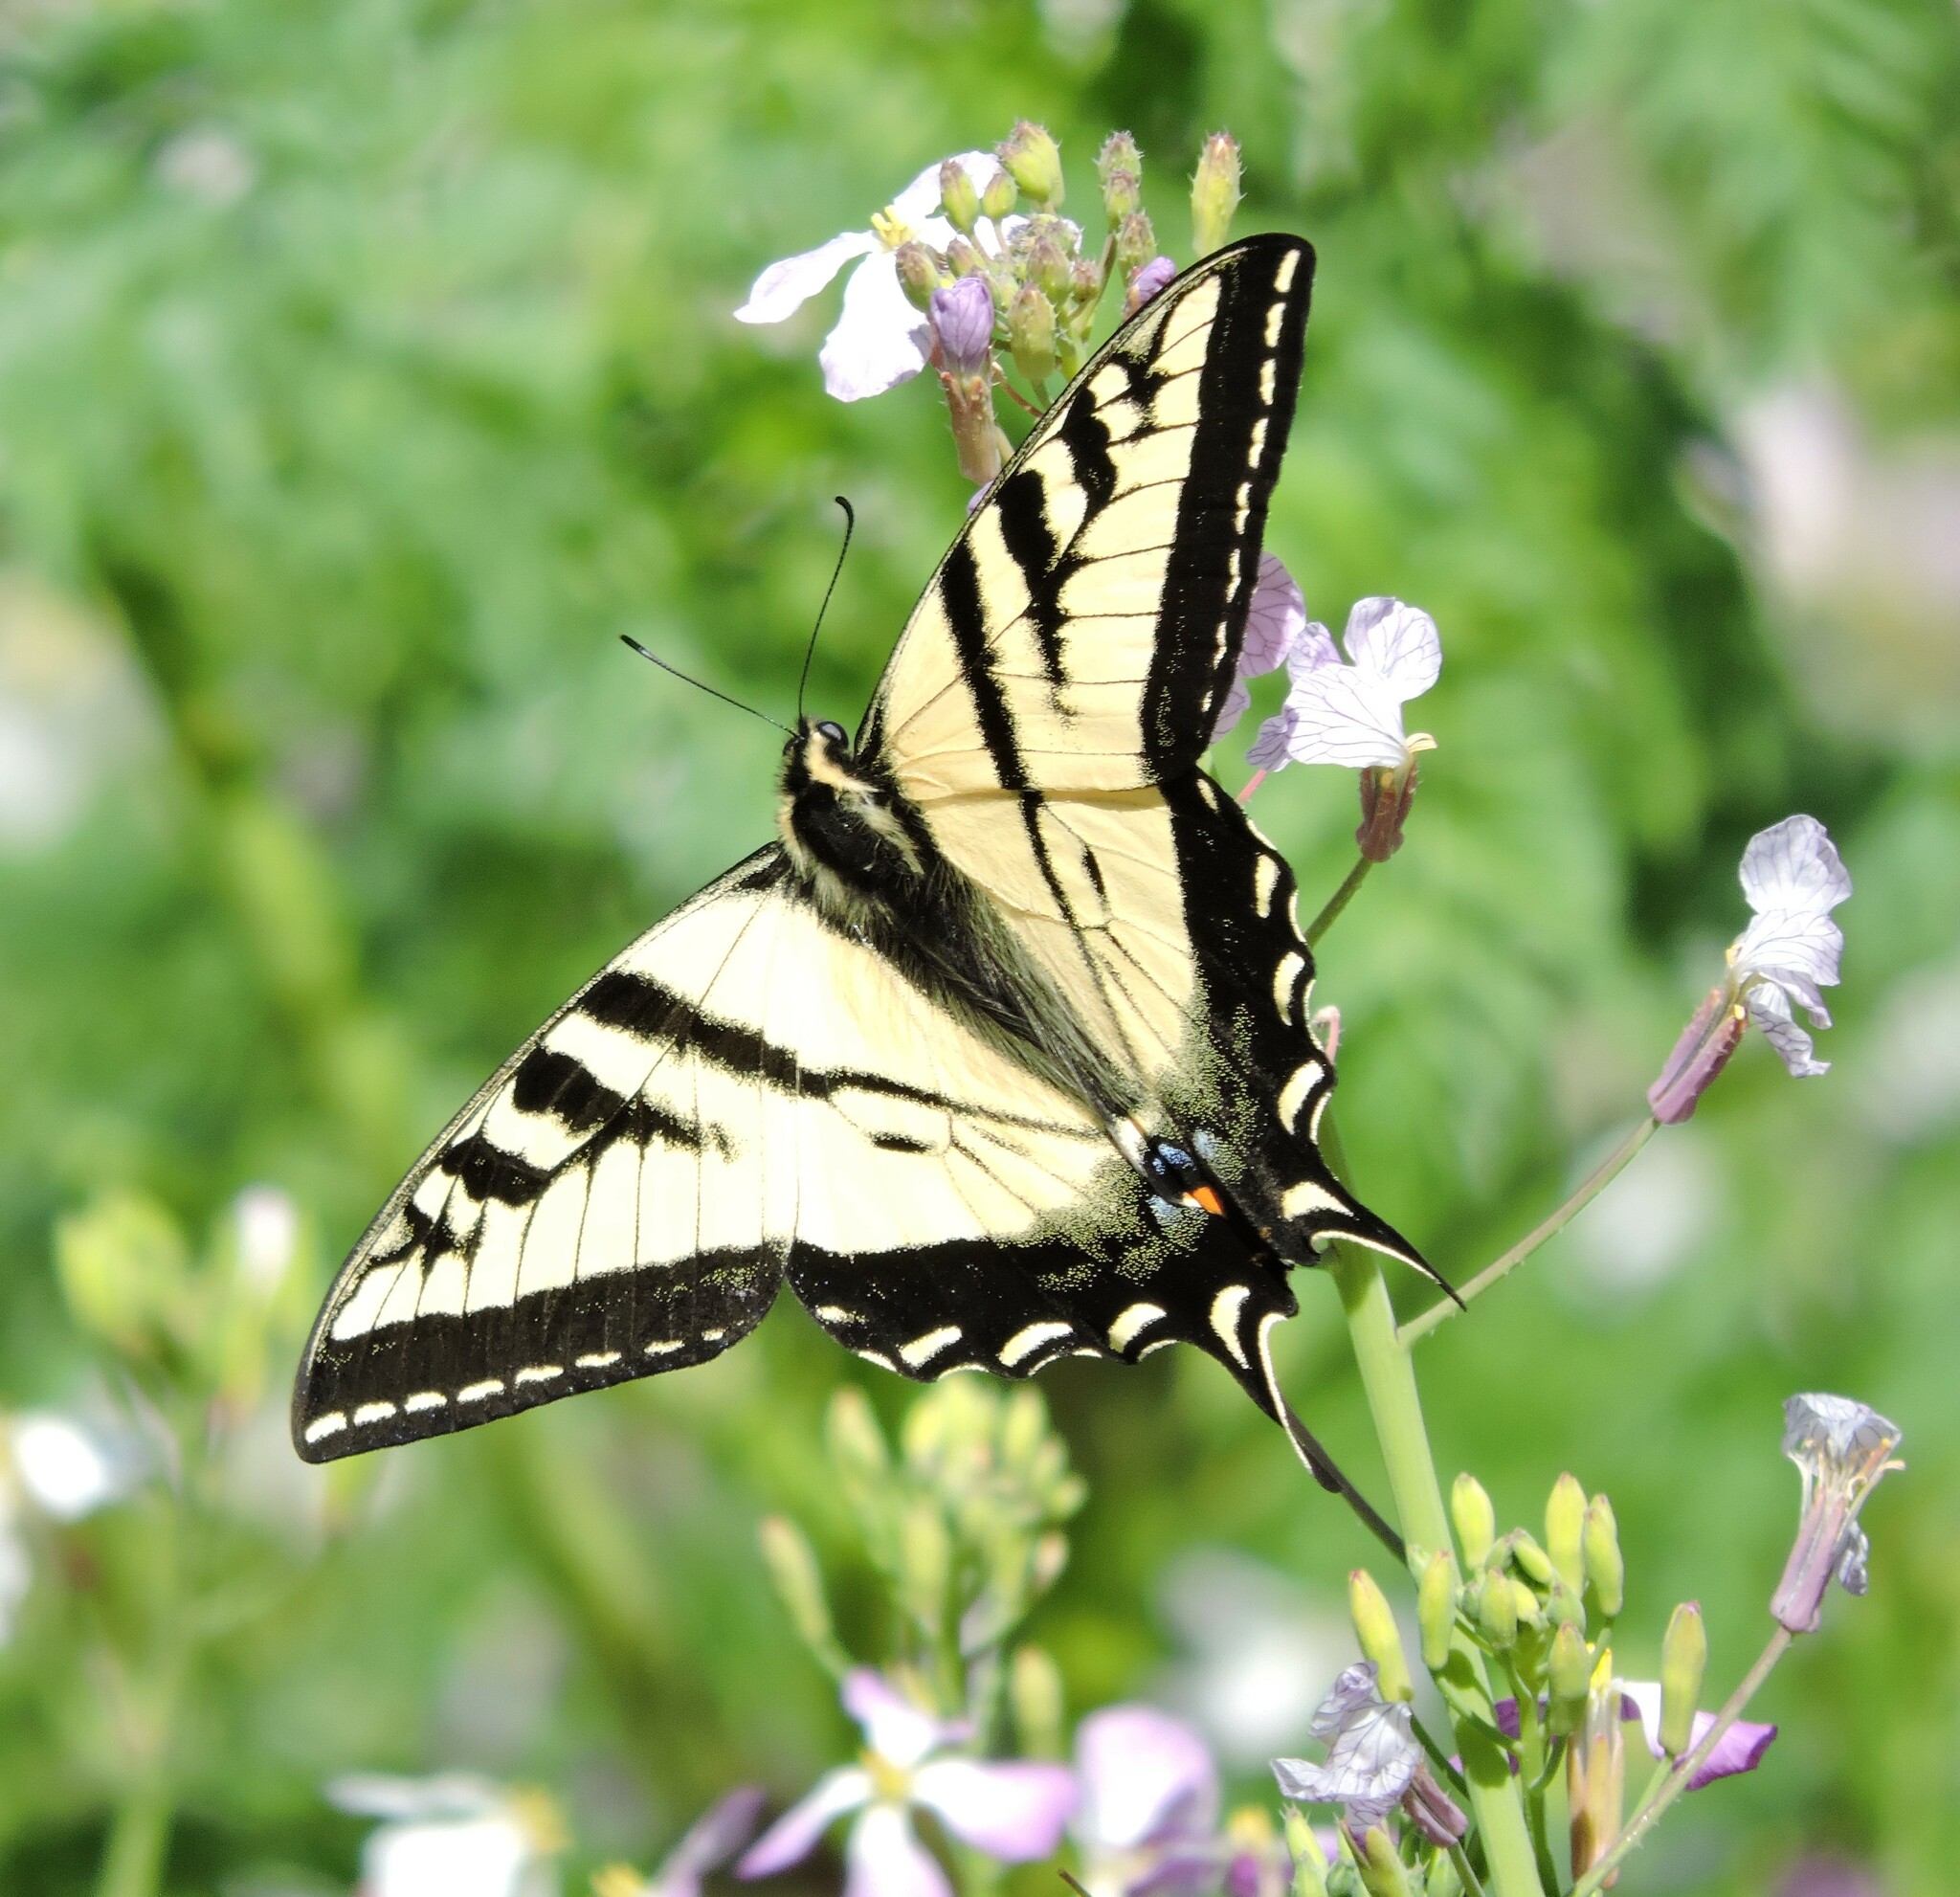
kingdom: Animalia
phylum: Arthropoda
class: Insecta
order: Lepidoptera
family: Papilionidae
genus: Papilio
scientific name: Papilio rutulus
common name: Western tiger swallowtail
